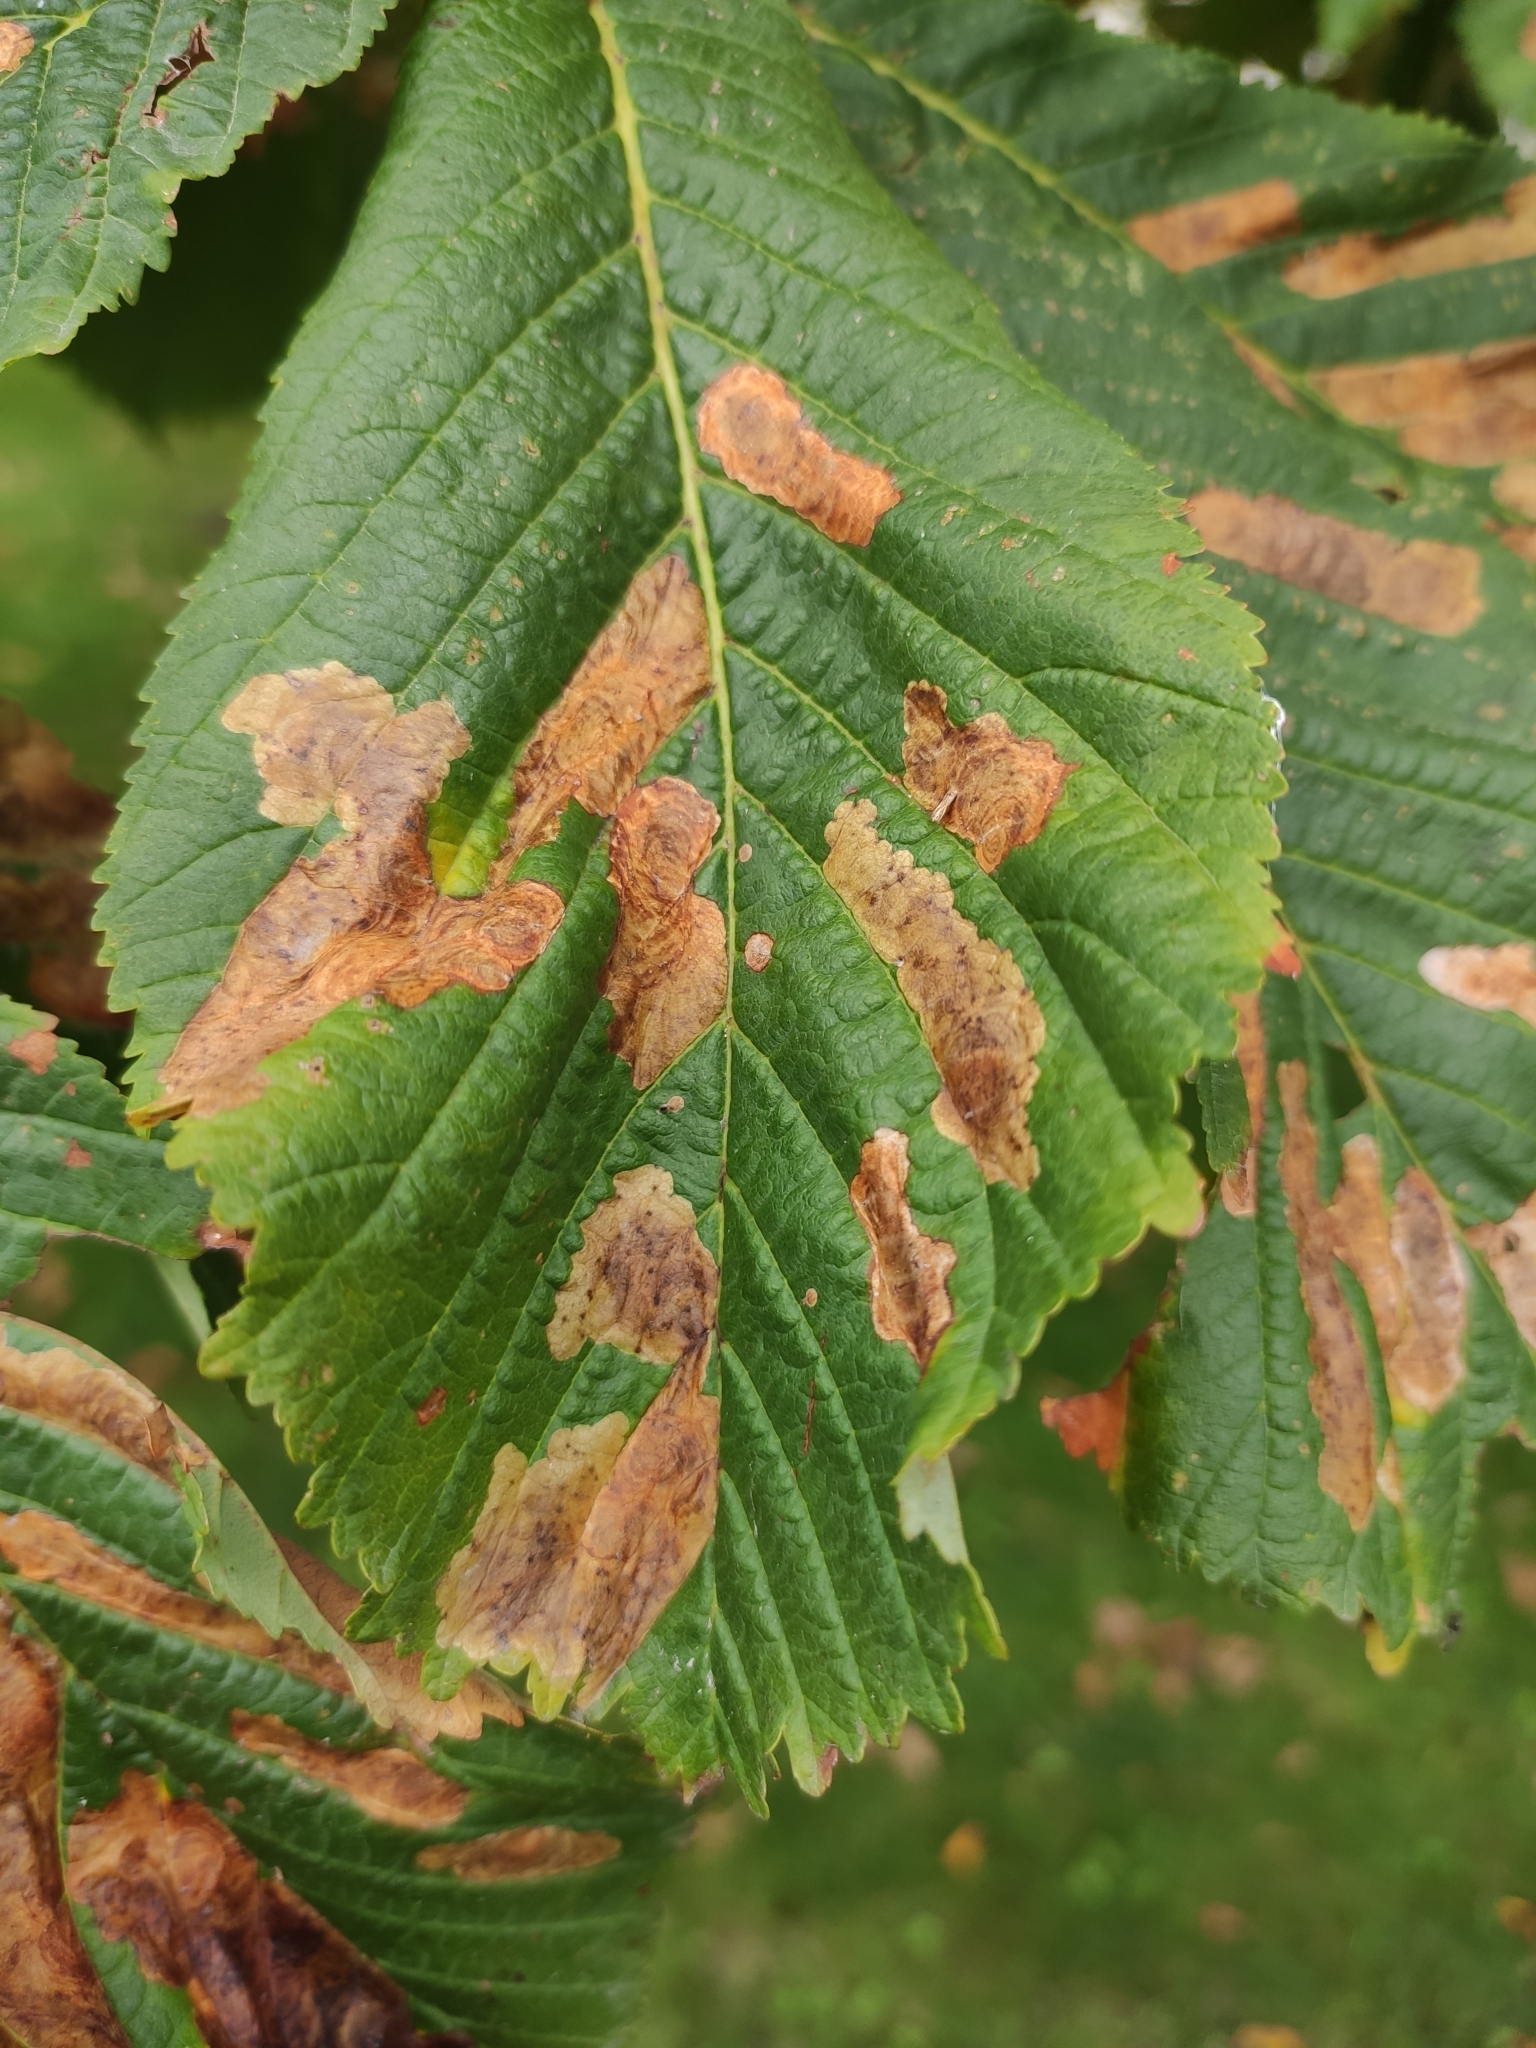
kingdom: Animalia
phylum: Arthropoda
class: Insecta
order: Lepidoptera
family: Gracillariidae
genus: Cameraria
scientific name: Cameraria ohridella
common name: Horse-chestnut leaf-miner
